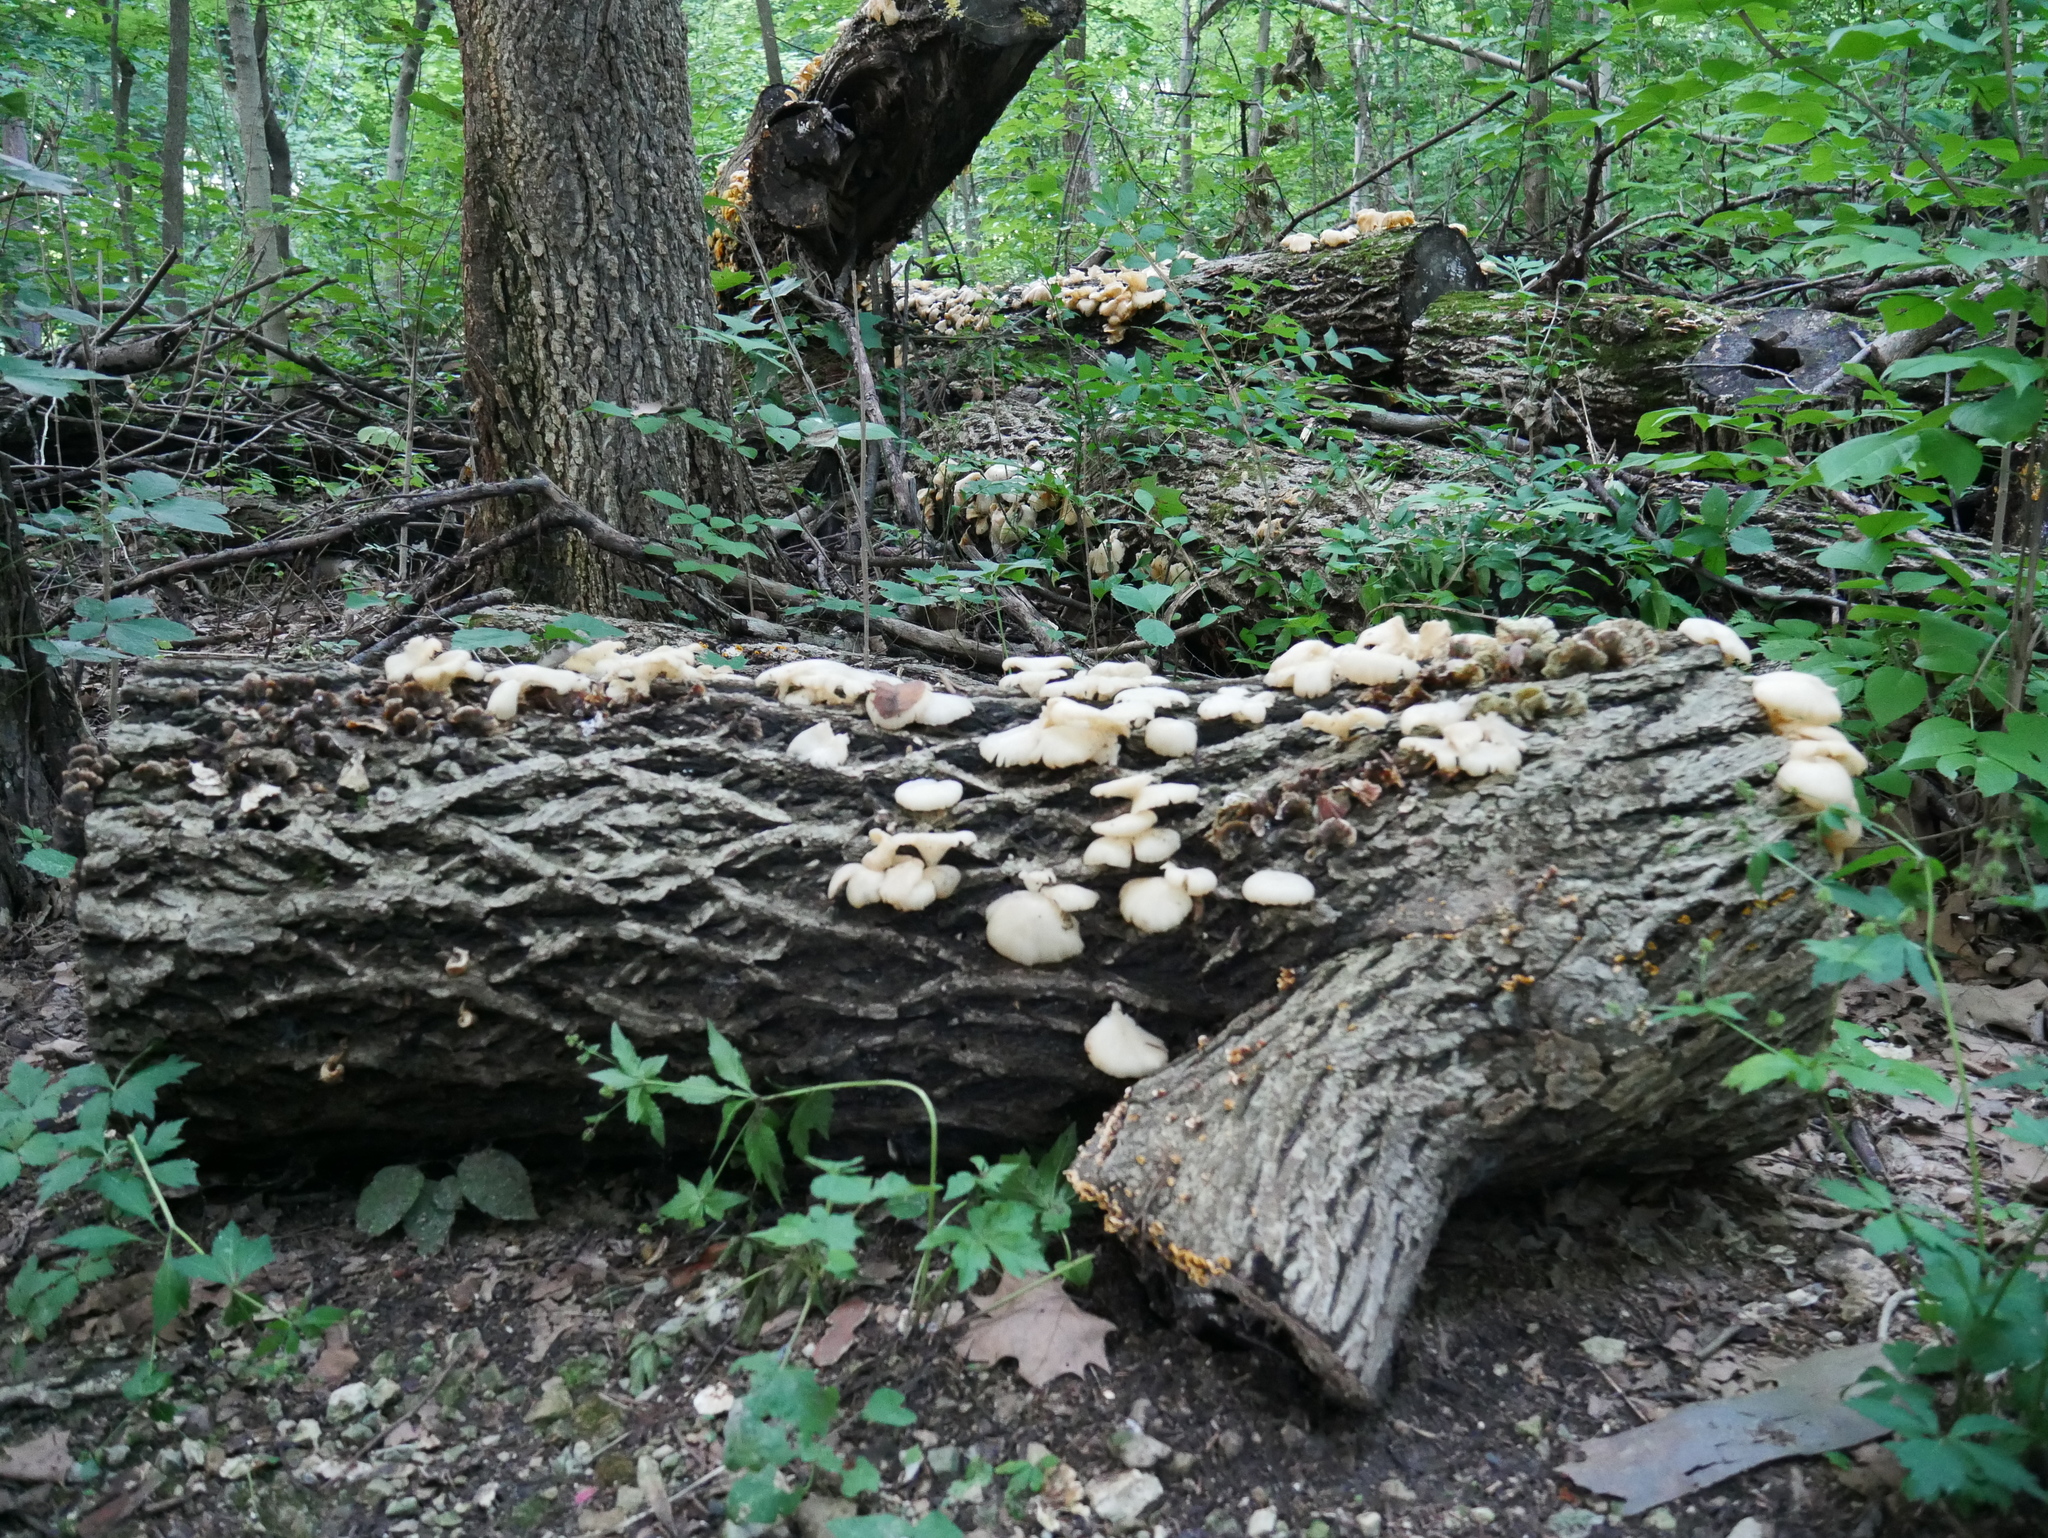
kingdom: Fungi
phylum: Basidiomycota
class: Agaricomycetes
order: Agaricales
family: Pleurotaceae
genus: Pleurotus
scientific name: Pleurotus pulmonarius
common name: Pale oyster
